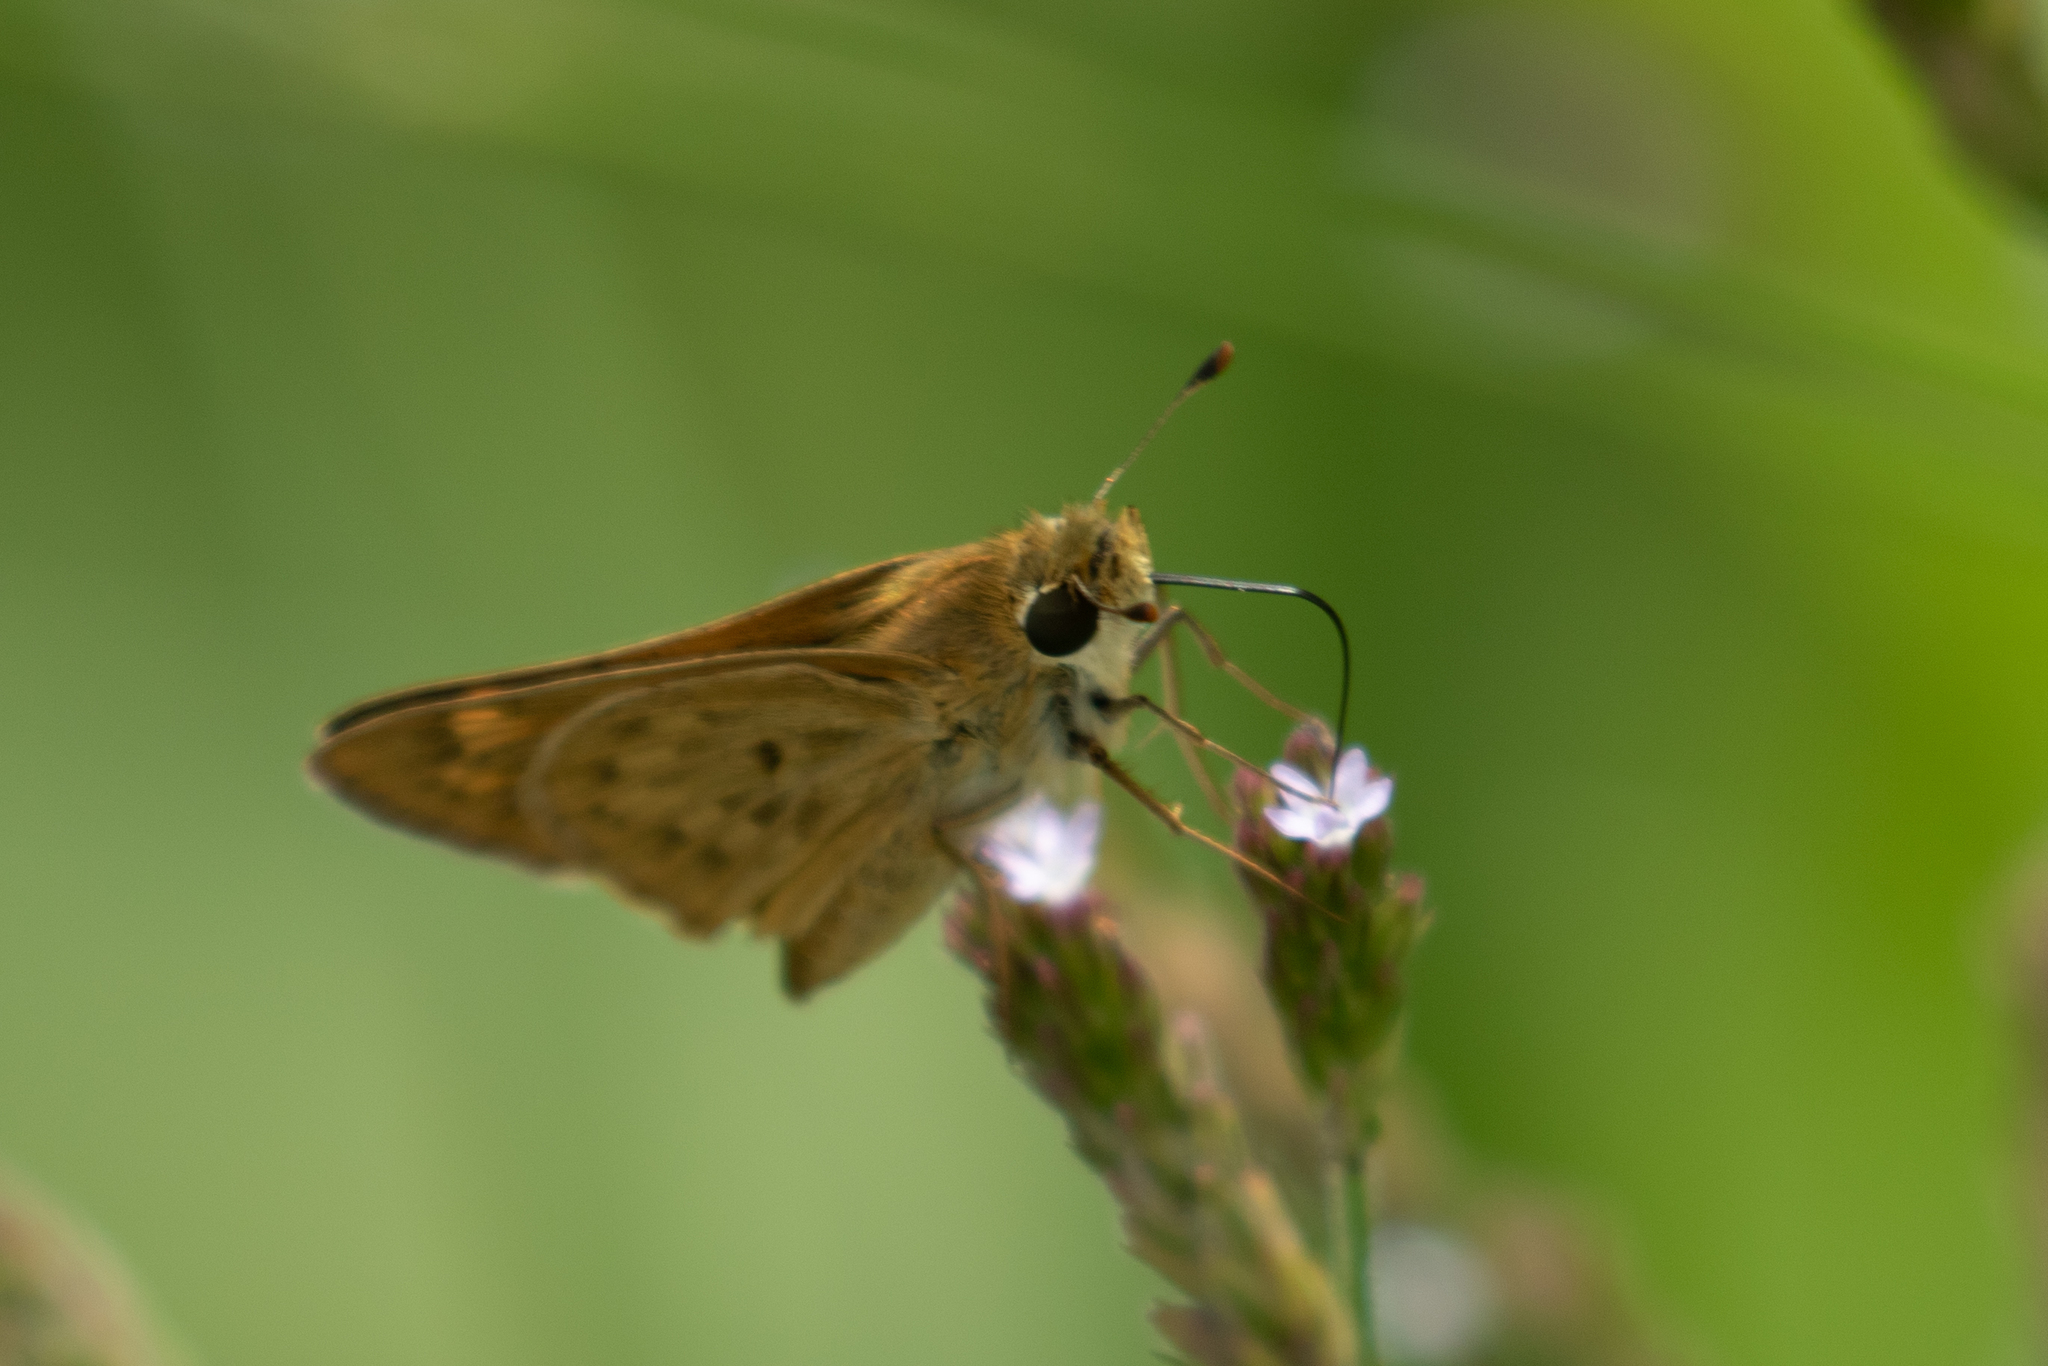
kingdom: Animalia
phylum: Arthropoda
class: Insecta
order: Lepidoptera
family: Hesperiidae
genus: Hylephila
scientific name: Hylephila phyleus
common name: Fiery skipper
